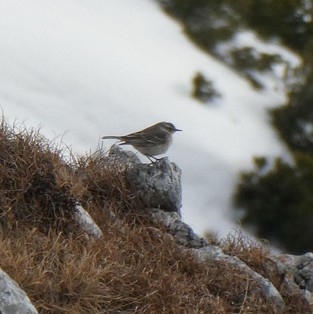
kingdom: Animalia
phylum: Chordata
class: Aves
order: Passeriformes
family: Motacillidae
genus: Anthus
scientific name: Anthus spinoletta
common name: Water pipit
